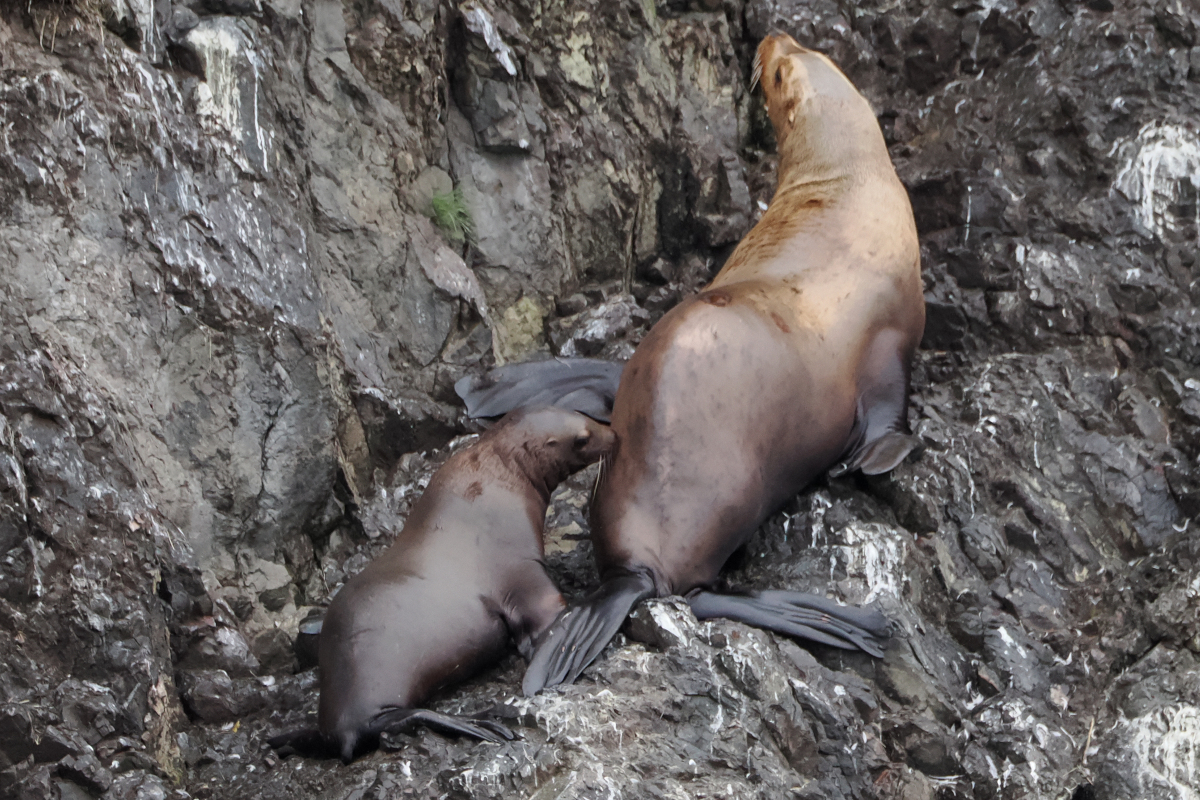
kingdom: Animalia
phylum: Chordata
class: Mammalia
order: Carnivora
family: Otariidae
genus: Eumetopias
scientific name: Eumetopias jubatus
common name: Steller sea lion
